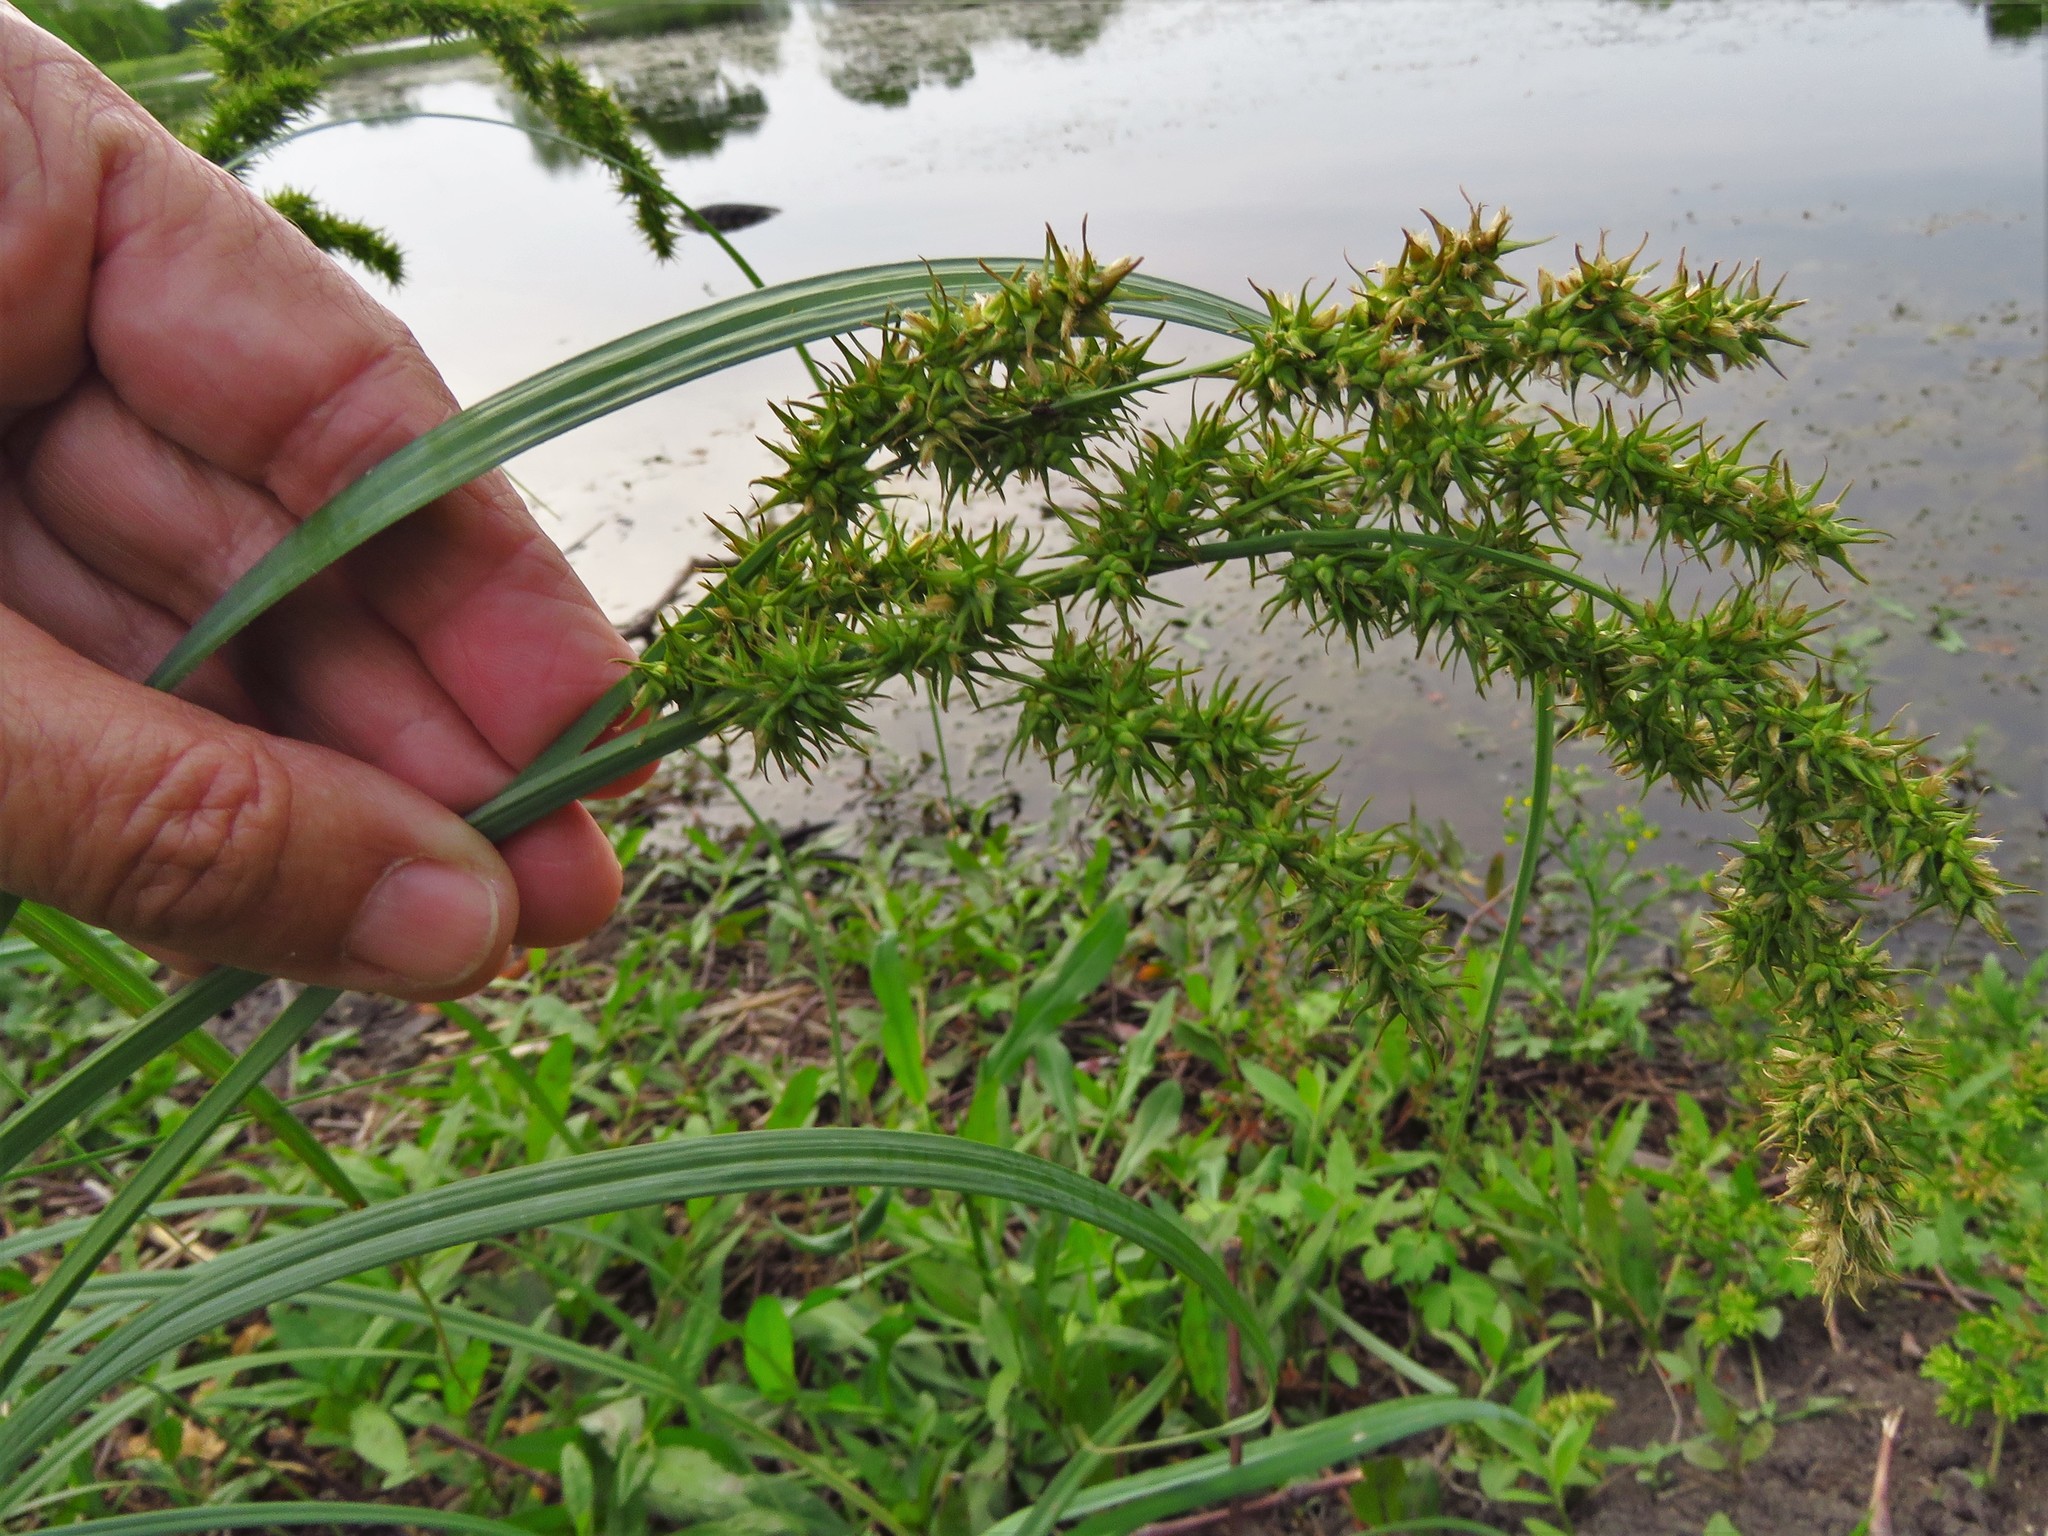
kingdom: Plantae
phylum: Tracheophyta
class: Liliopsida
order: Poales
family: Cyperaceae
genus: Carex
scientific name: Carex crus-corvi
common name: Crow-spur sedge
